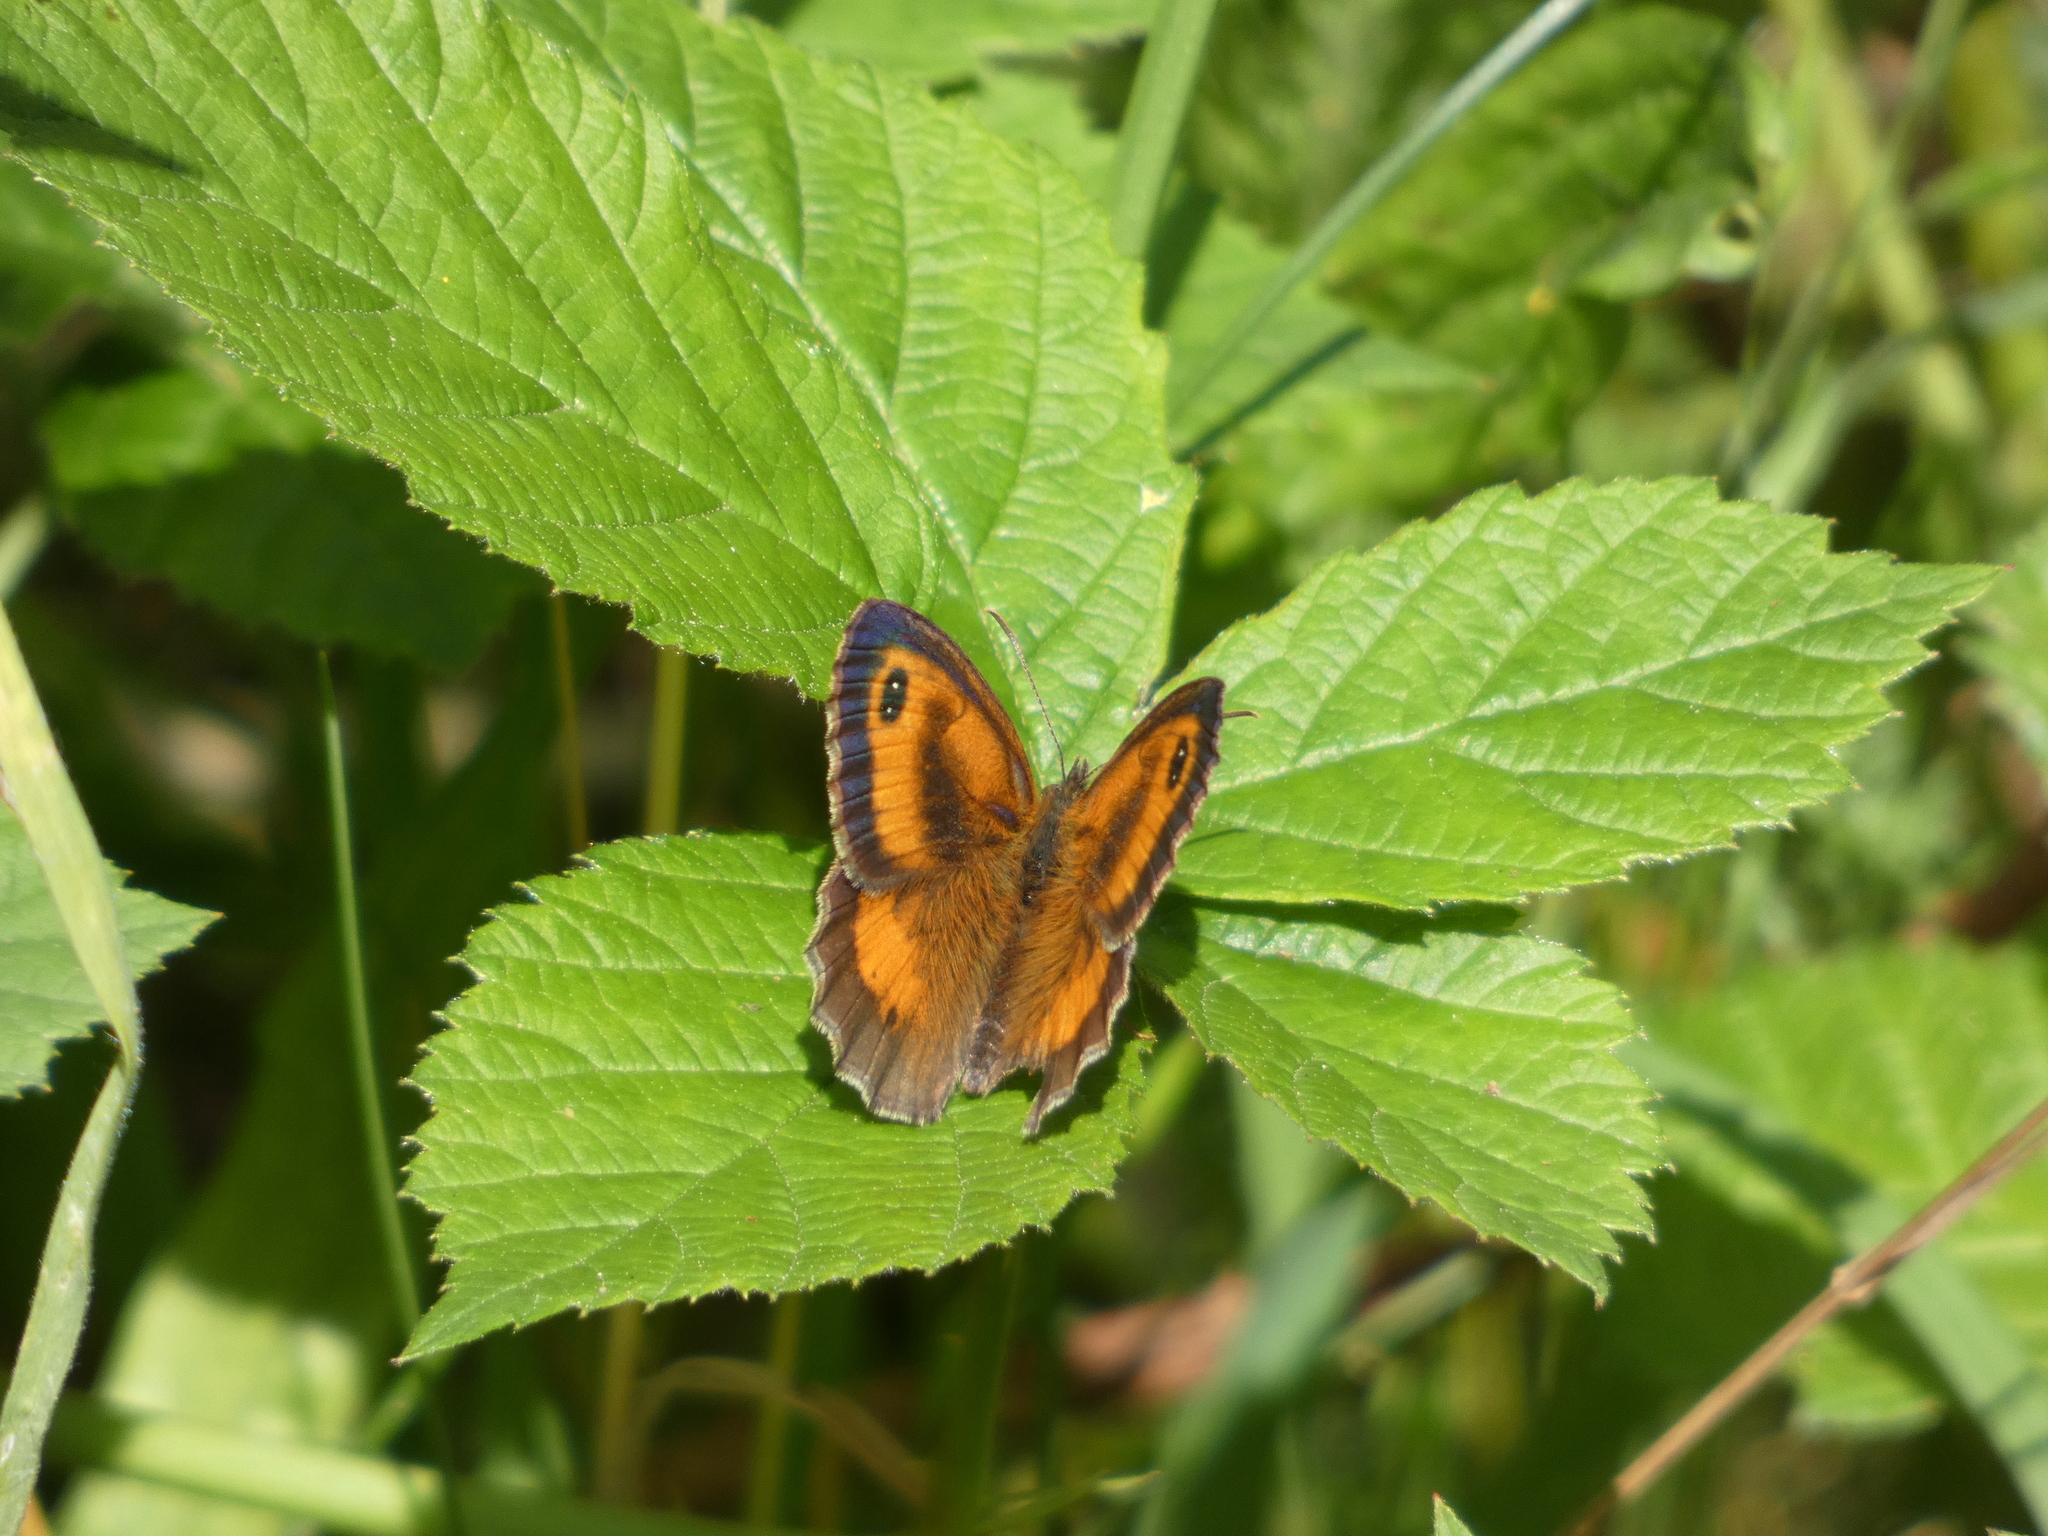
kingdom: Animalia
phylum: Arthropoda
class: Insecta
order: Lepidoptera
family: Nymphalidae
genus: Pyronia
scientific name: Pyronia tithonus
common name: Gatekeeper
